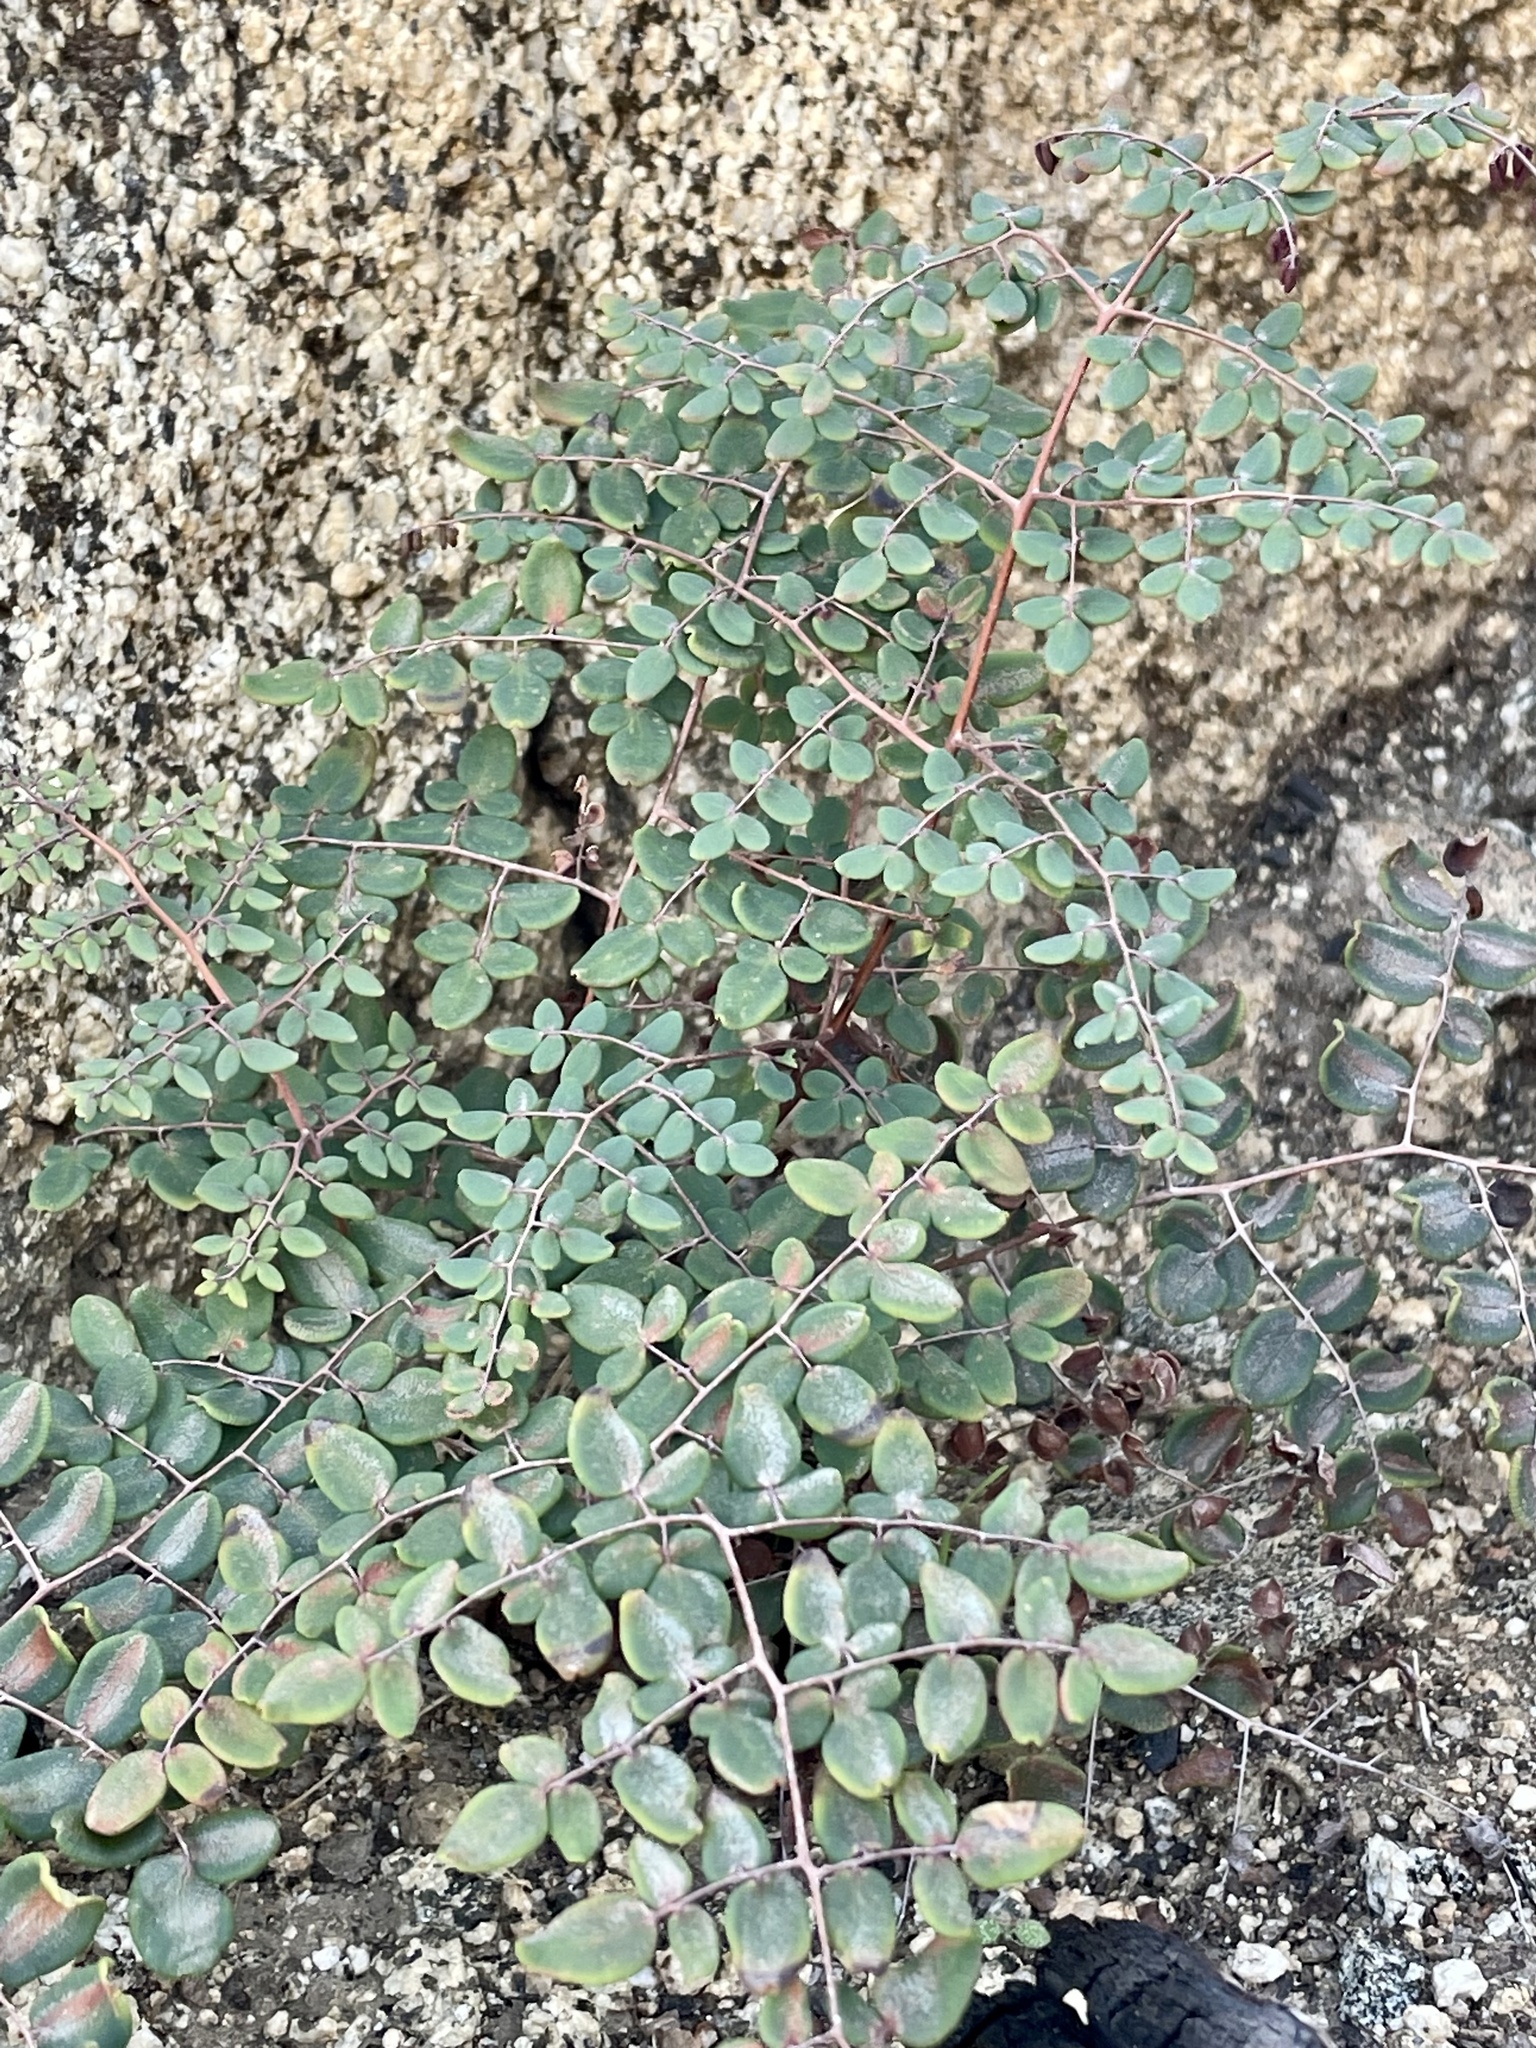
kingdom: Plantae
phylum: Tracheophyta
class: Polypodiopsida
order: Polypodiales
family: Pteridaceae
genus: Pellaea
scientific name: Pellaea andromedifolia
